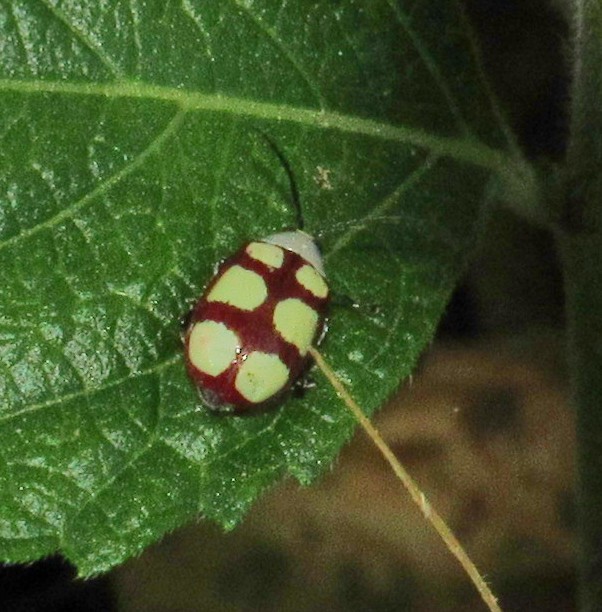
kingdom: Animalia
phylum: Arthropoda
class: Insecta
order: Coleoptera
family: Chrysomelidae
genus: Omophoita
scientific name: Omophoita
